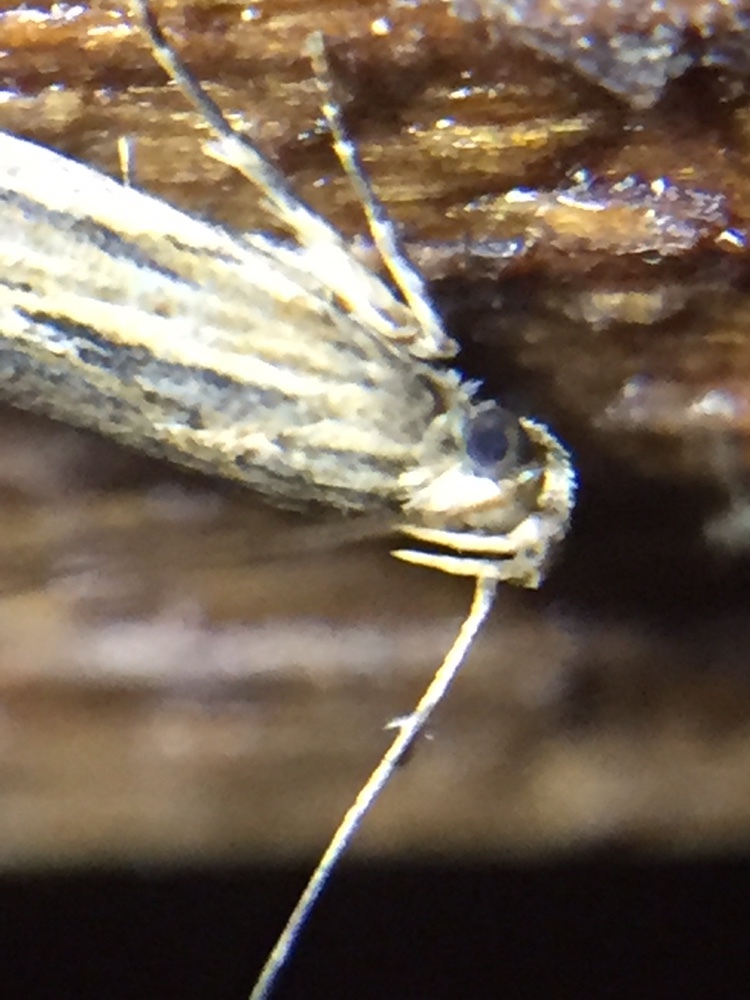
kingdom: Animalia
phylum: Arthropoda
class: Insecta
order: Lepidoptera
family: Gelechiidae
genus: Symmetrischema
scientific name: Symmetrischema striatella
